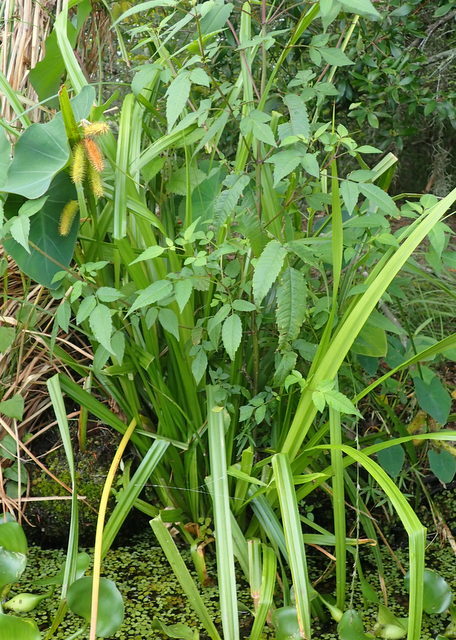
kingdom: Plantae
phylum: Tracheophyta
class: Liliopsida
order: Poales
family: Cyperaceae
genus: Carex
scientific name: Carex comosa
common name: Bristly sedge
